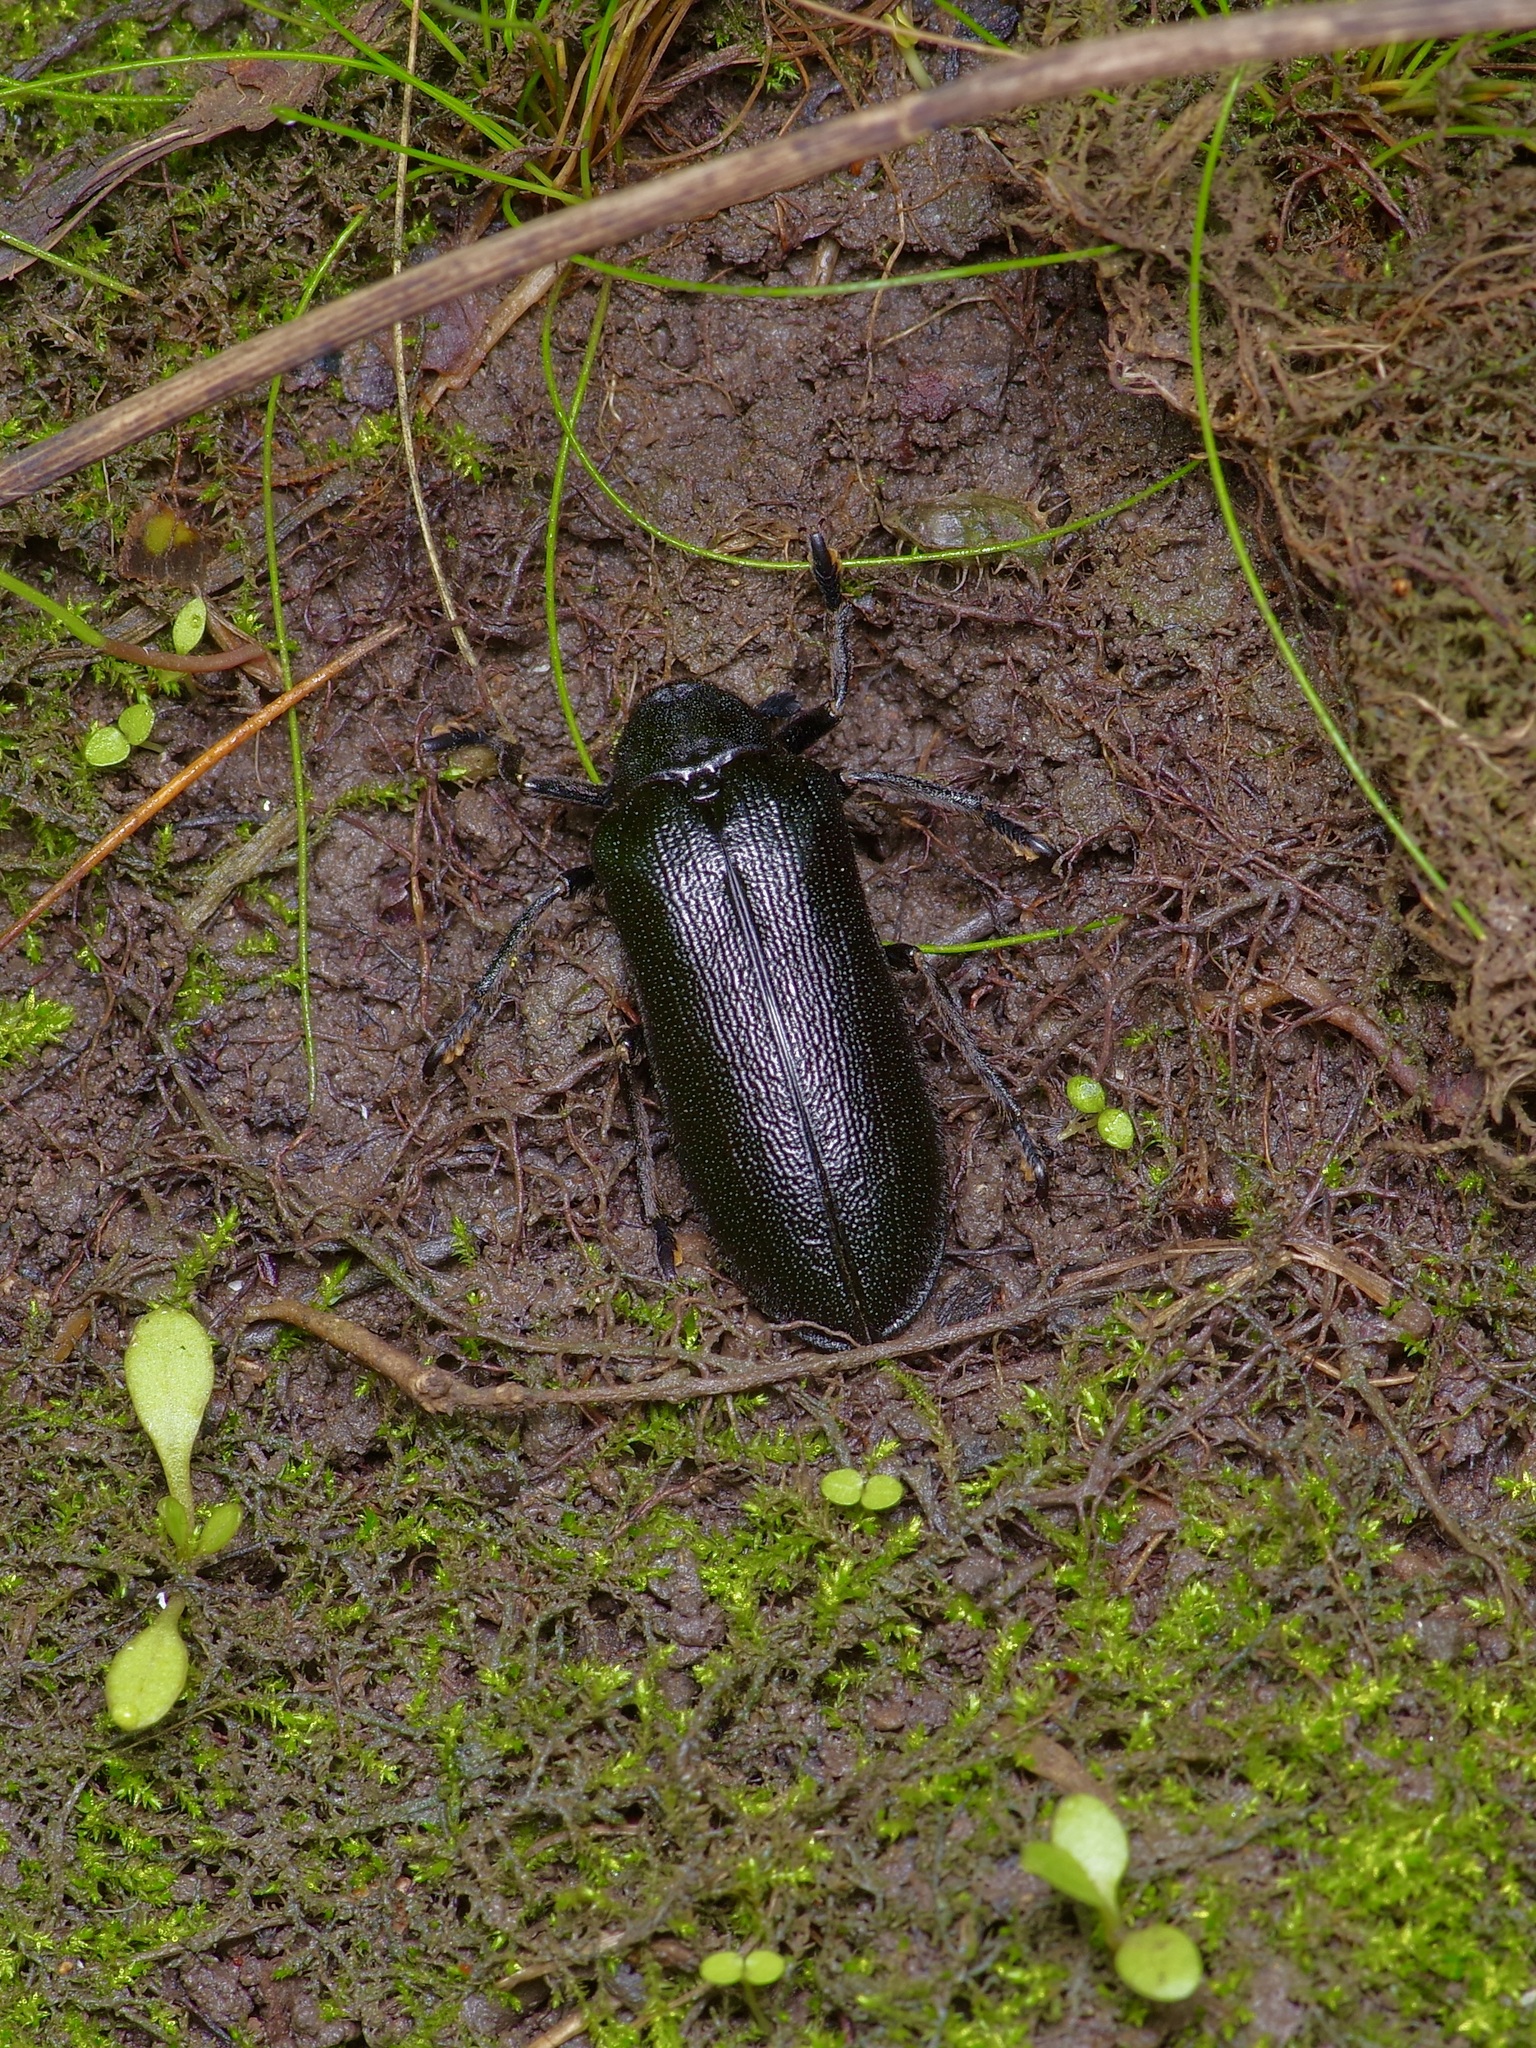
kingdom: Animalia
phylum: Arthropoda
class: Insecta
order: Coleoptera
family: Rhipiceridae
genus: Sandalus
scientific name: Sandalus niger
